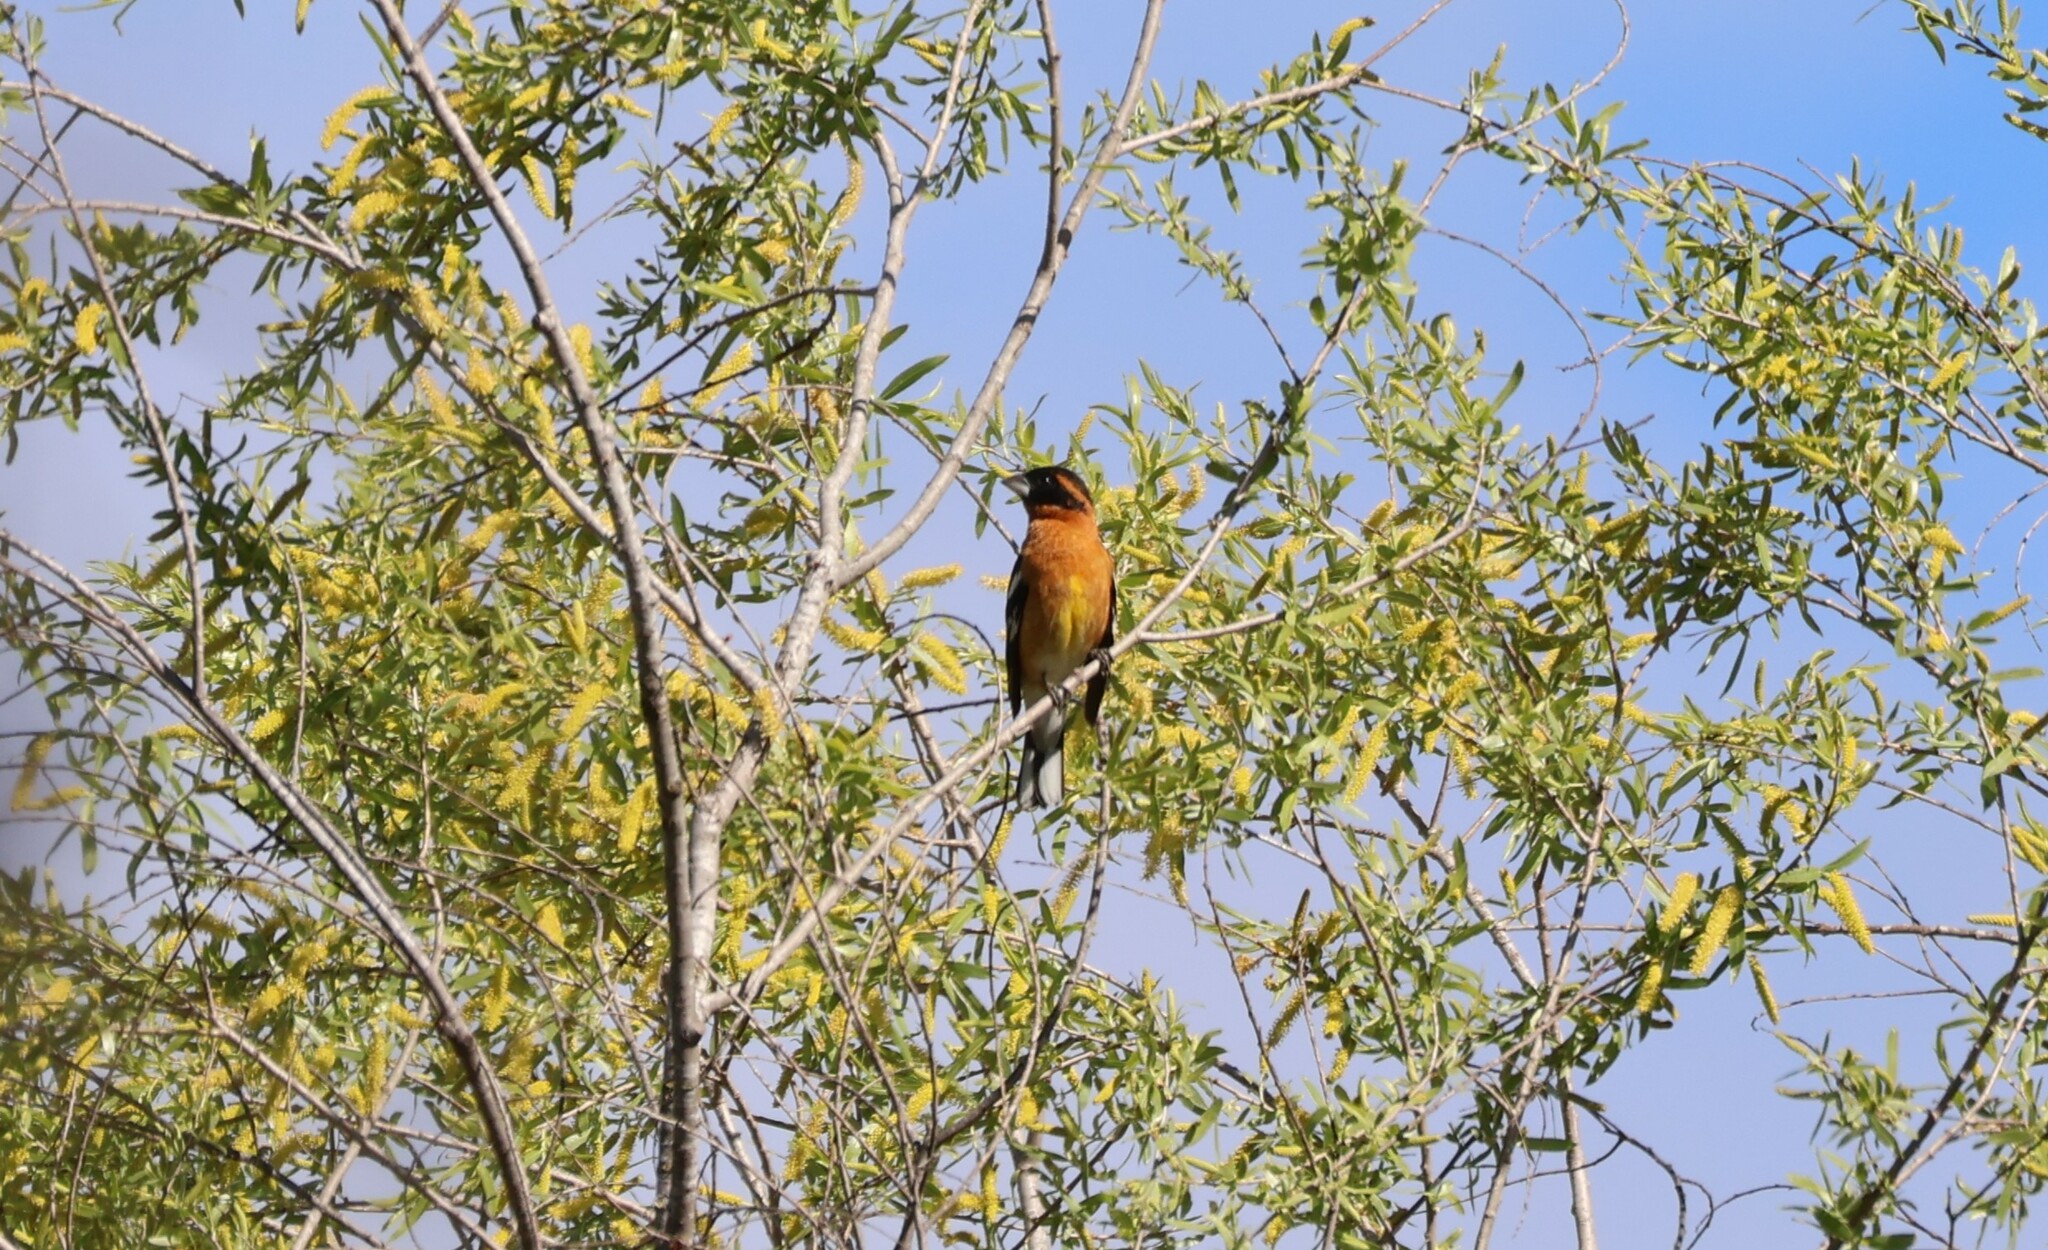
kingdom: Animalia
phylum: Chordata
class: Aves
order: Passeriformes
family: Cardinalidae
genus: Pheucticus
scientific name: Pheucticus melanocephalus
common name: Black-headed grosbeak
